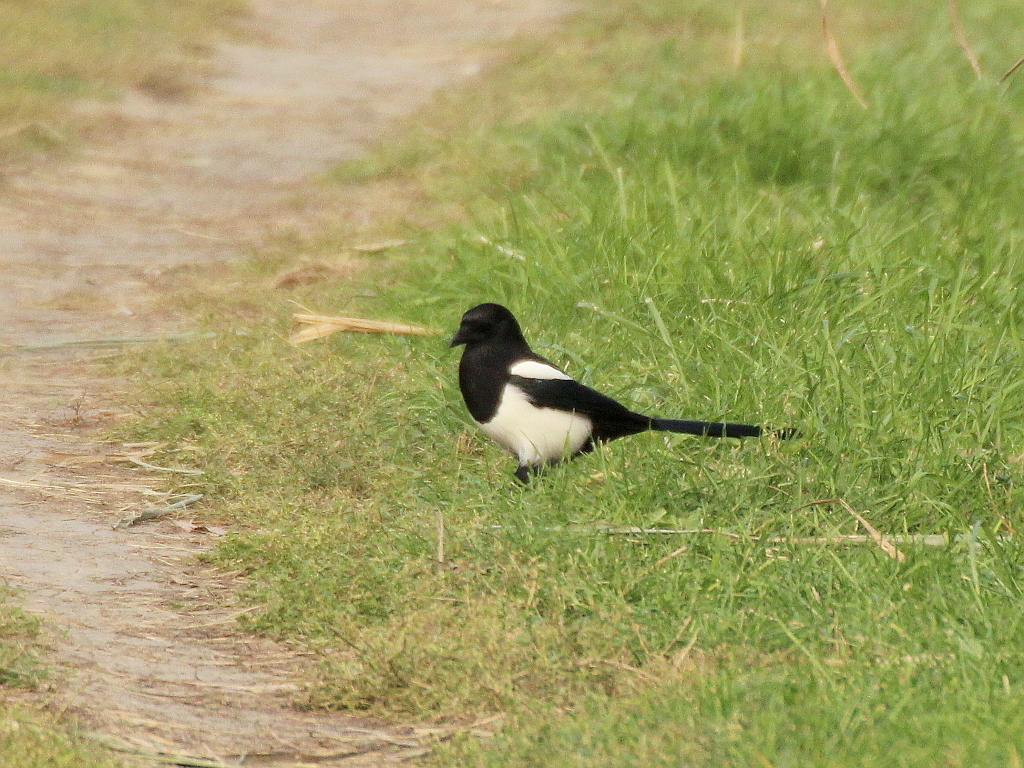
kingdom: Animalia
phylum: Chordata
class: Aves
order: Passeriformes
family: Corvidae
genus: Pica
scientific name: Pica pica
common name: Eurasian magpie
